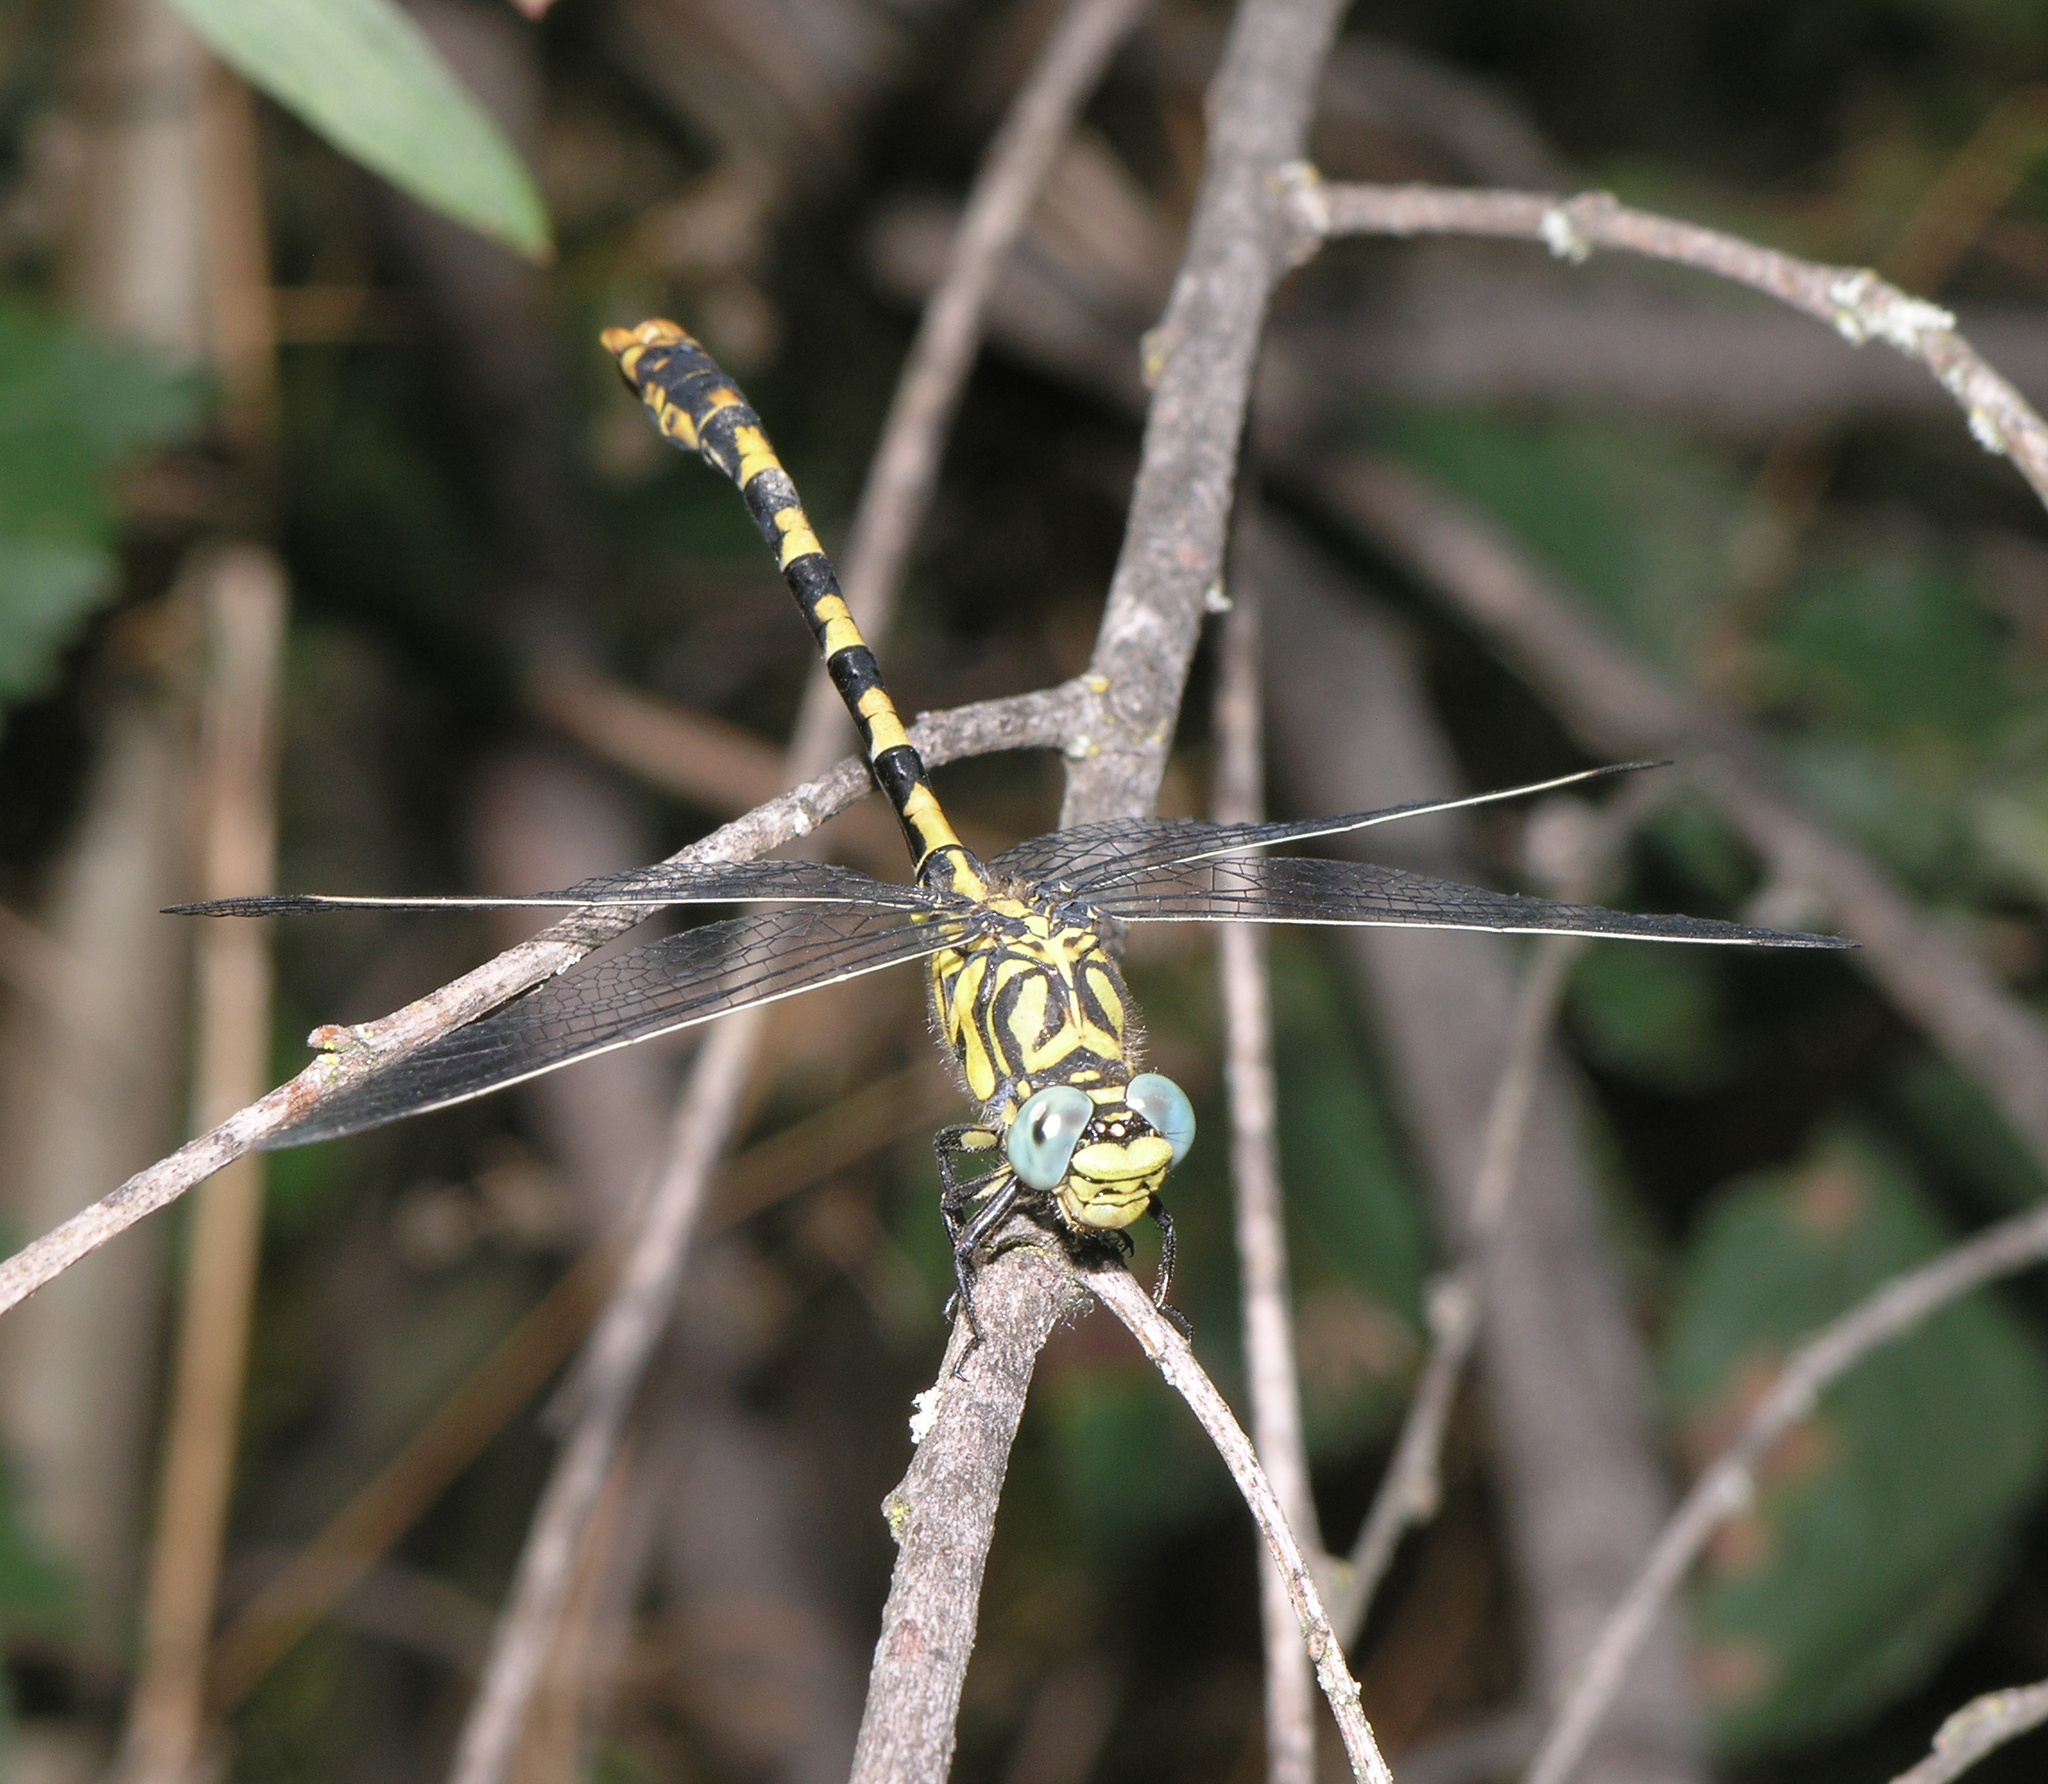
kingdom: Animalia
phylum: Arthropoda
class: Insecta
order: Odonata
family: Gomphidae
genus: Onychogomphus
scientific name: Onychogomphus forcipatus
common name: Small pincertail
